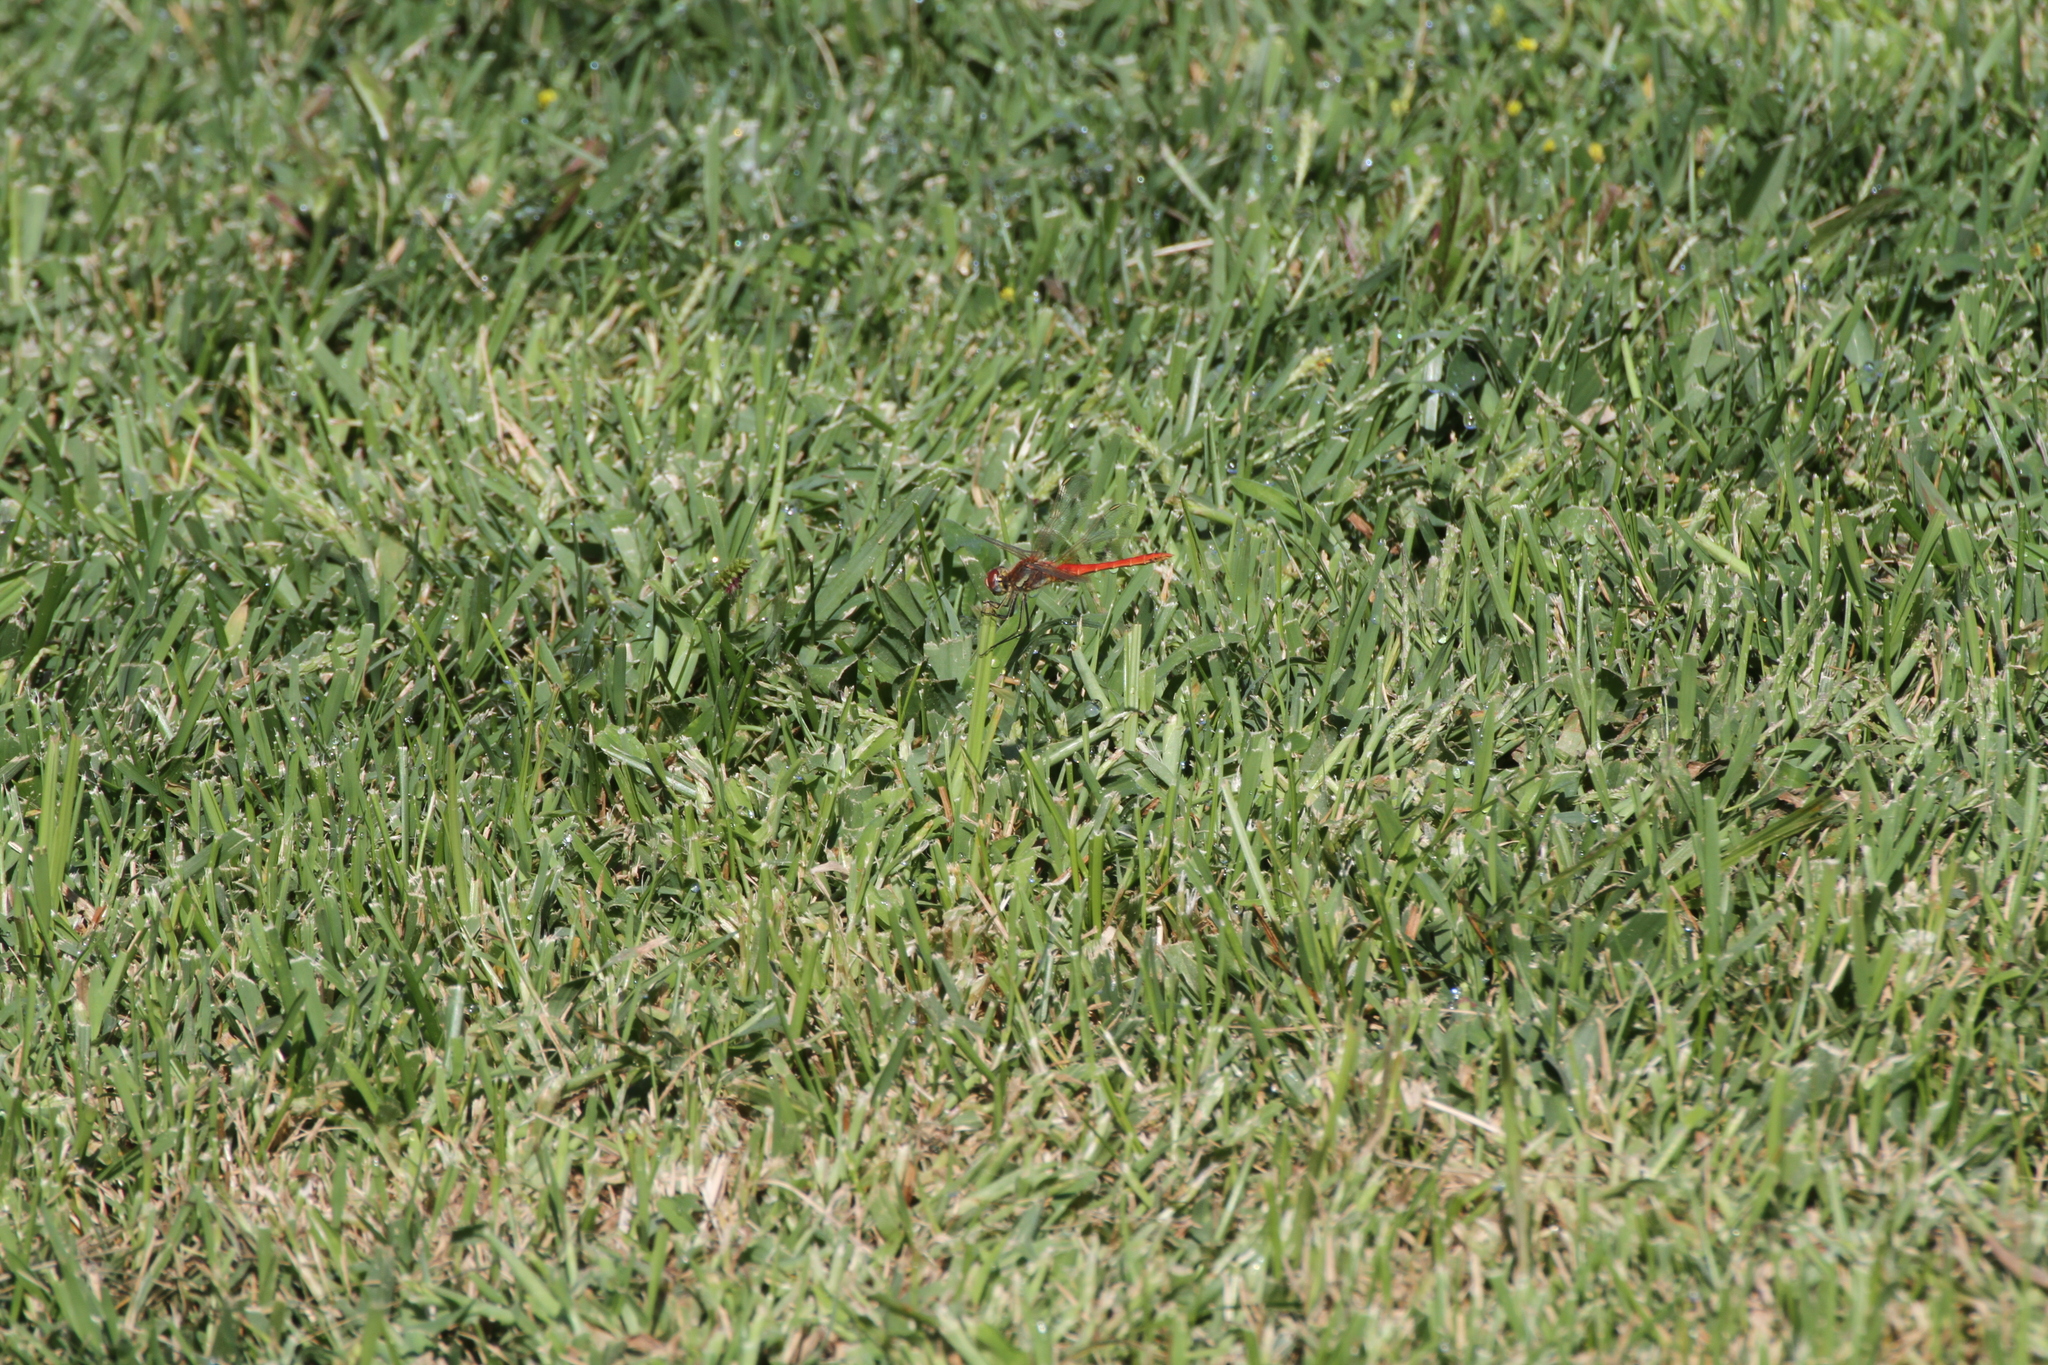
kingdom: Animalia
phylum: Arthropoda
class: Insecta
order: Odonata
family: Libellulidae
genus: Sympetrum
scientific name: Sympetrum fonscolombii
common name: Red-veined darter
